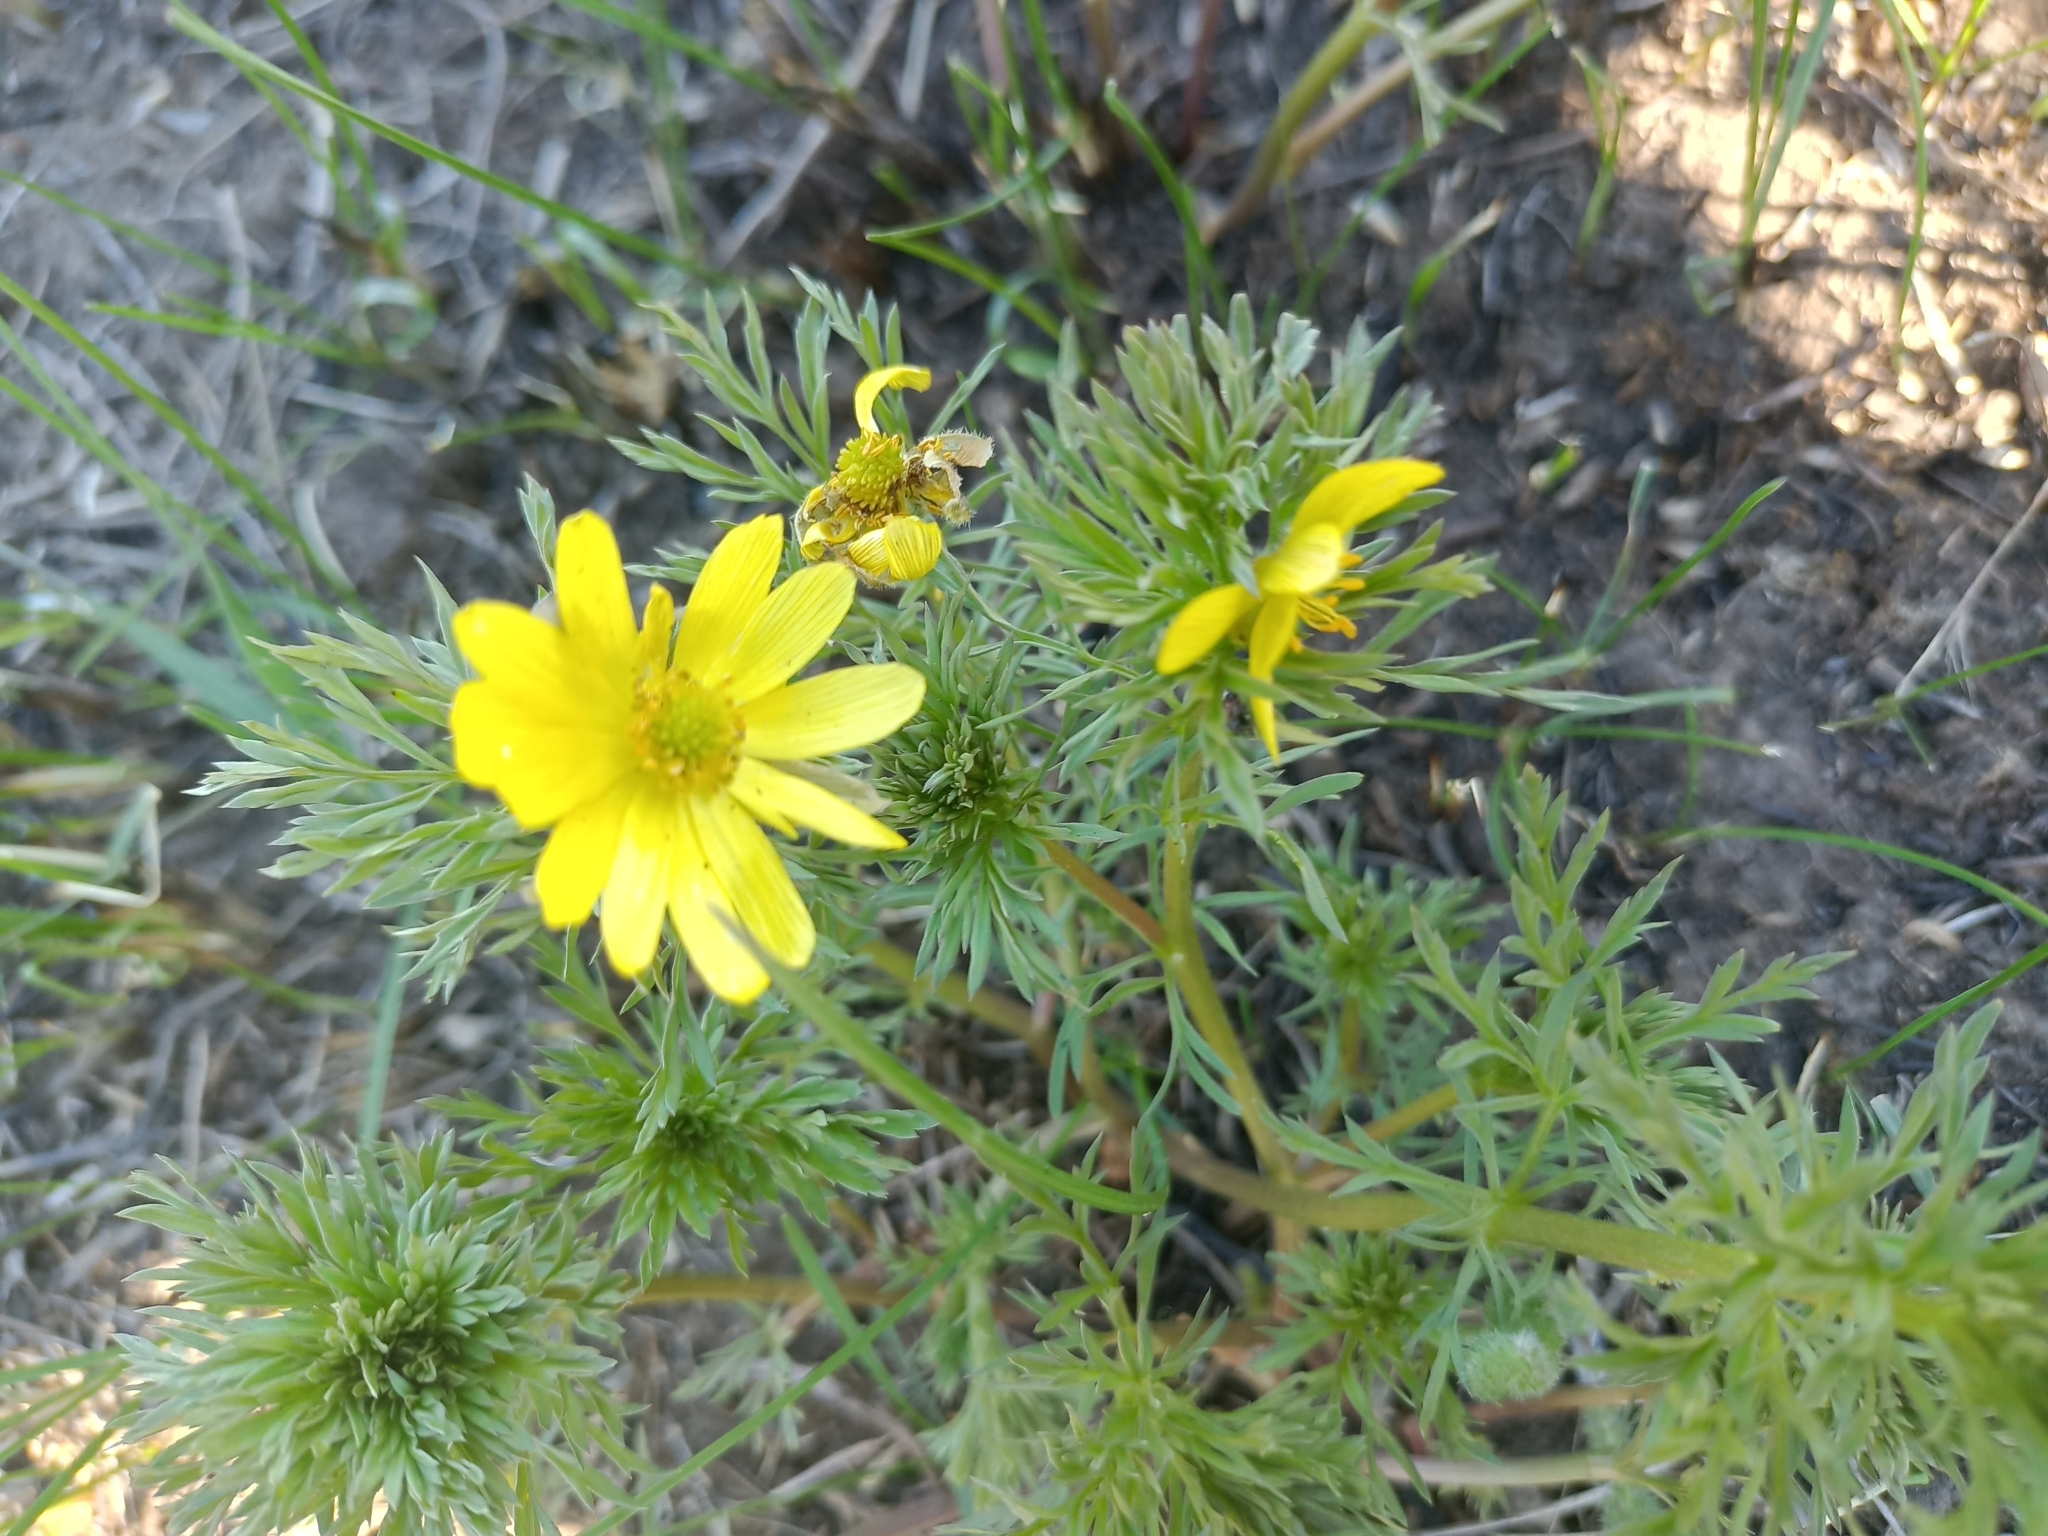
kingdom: Plantae
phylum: Tracheophyta
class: Magnoliopsida
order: Ranunculales
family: Ranunculaceae
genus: Adonis
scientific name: Adonis volgensis
